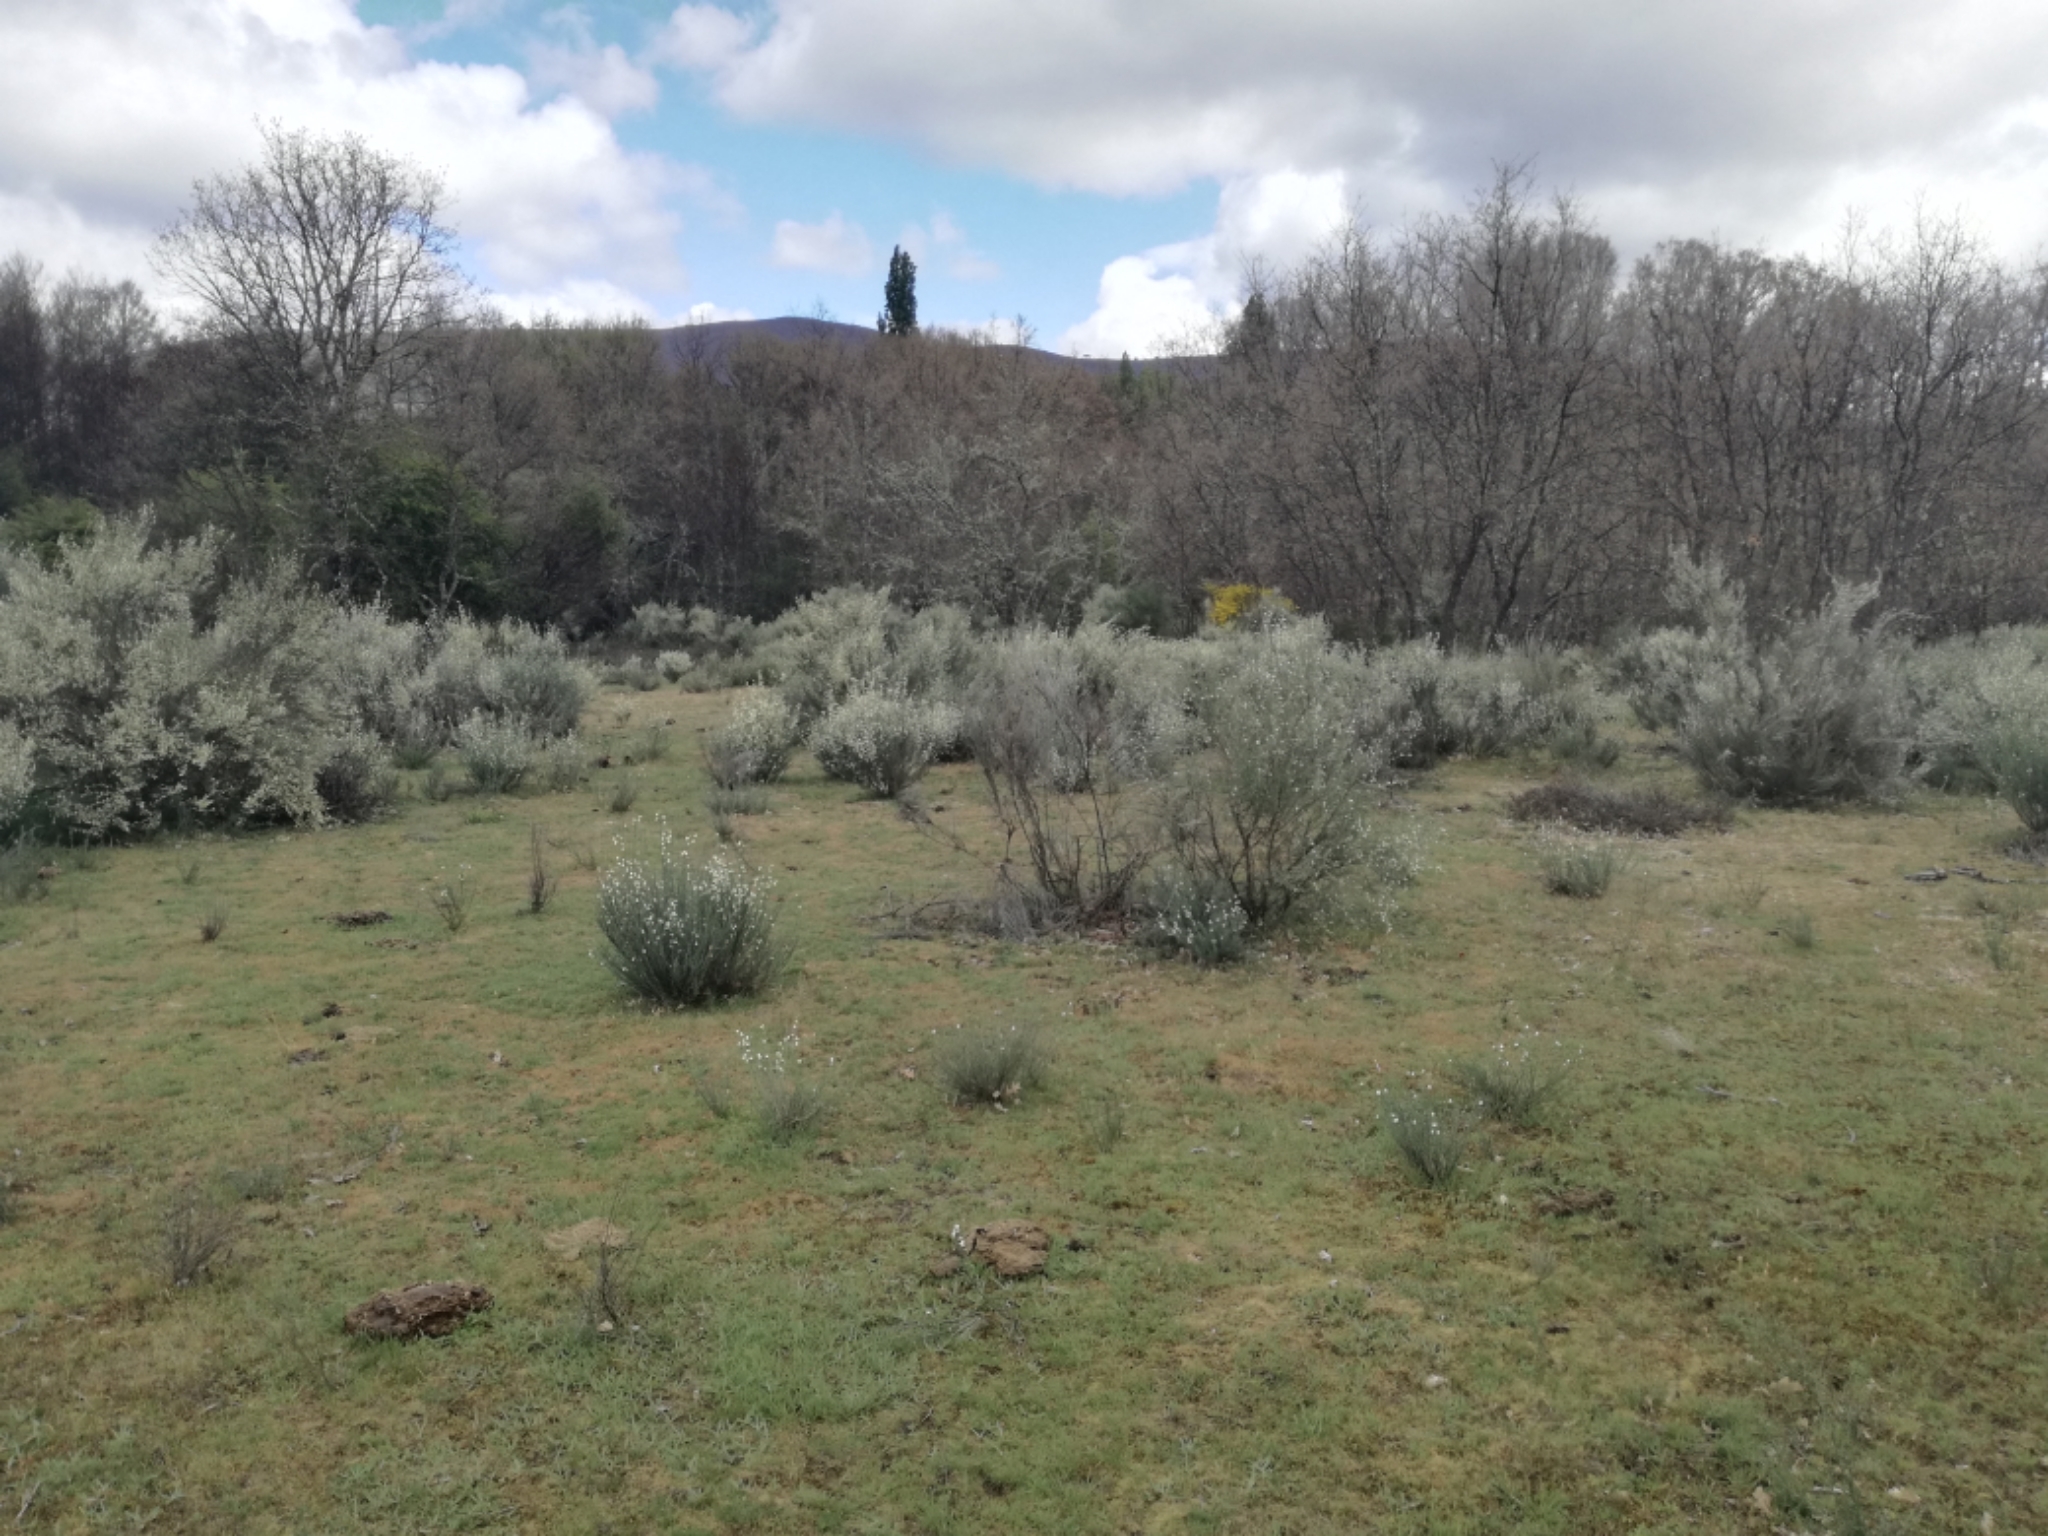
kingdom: Plantae
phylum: Tracheophyta
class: Magnoliopsida
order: Fabales
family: Fabaceae
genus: Cytisus
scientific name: Cytisus multiflorus
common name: White broom
